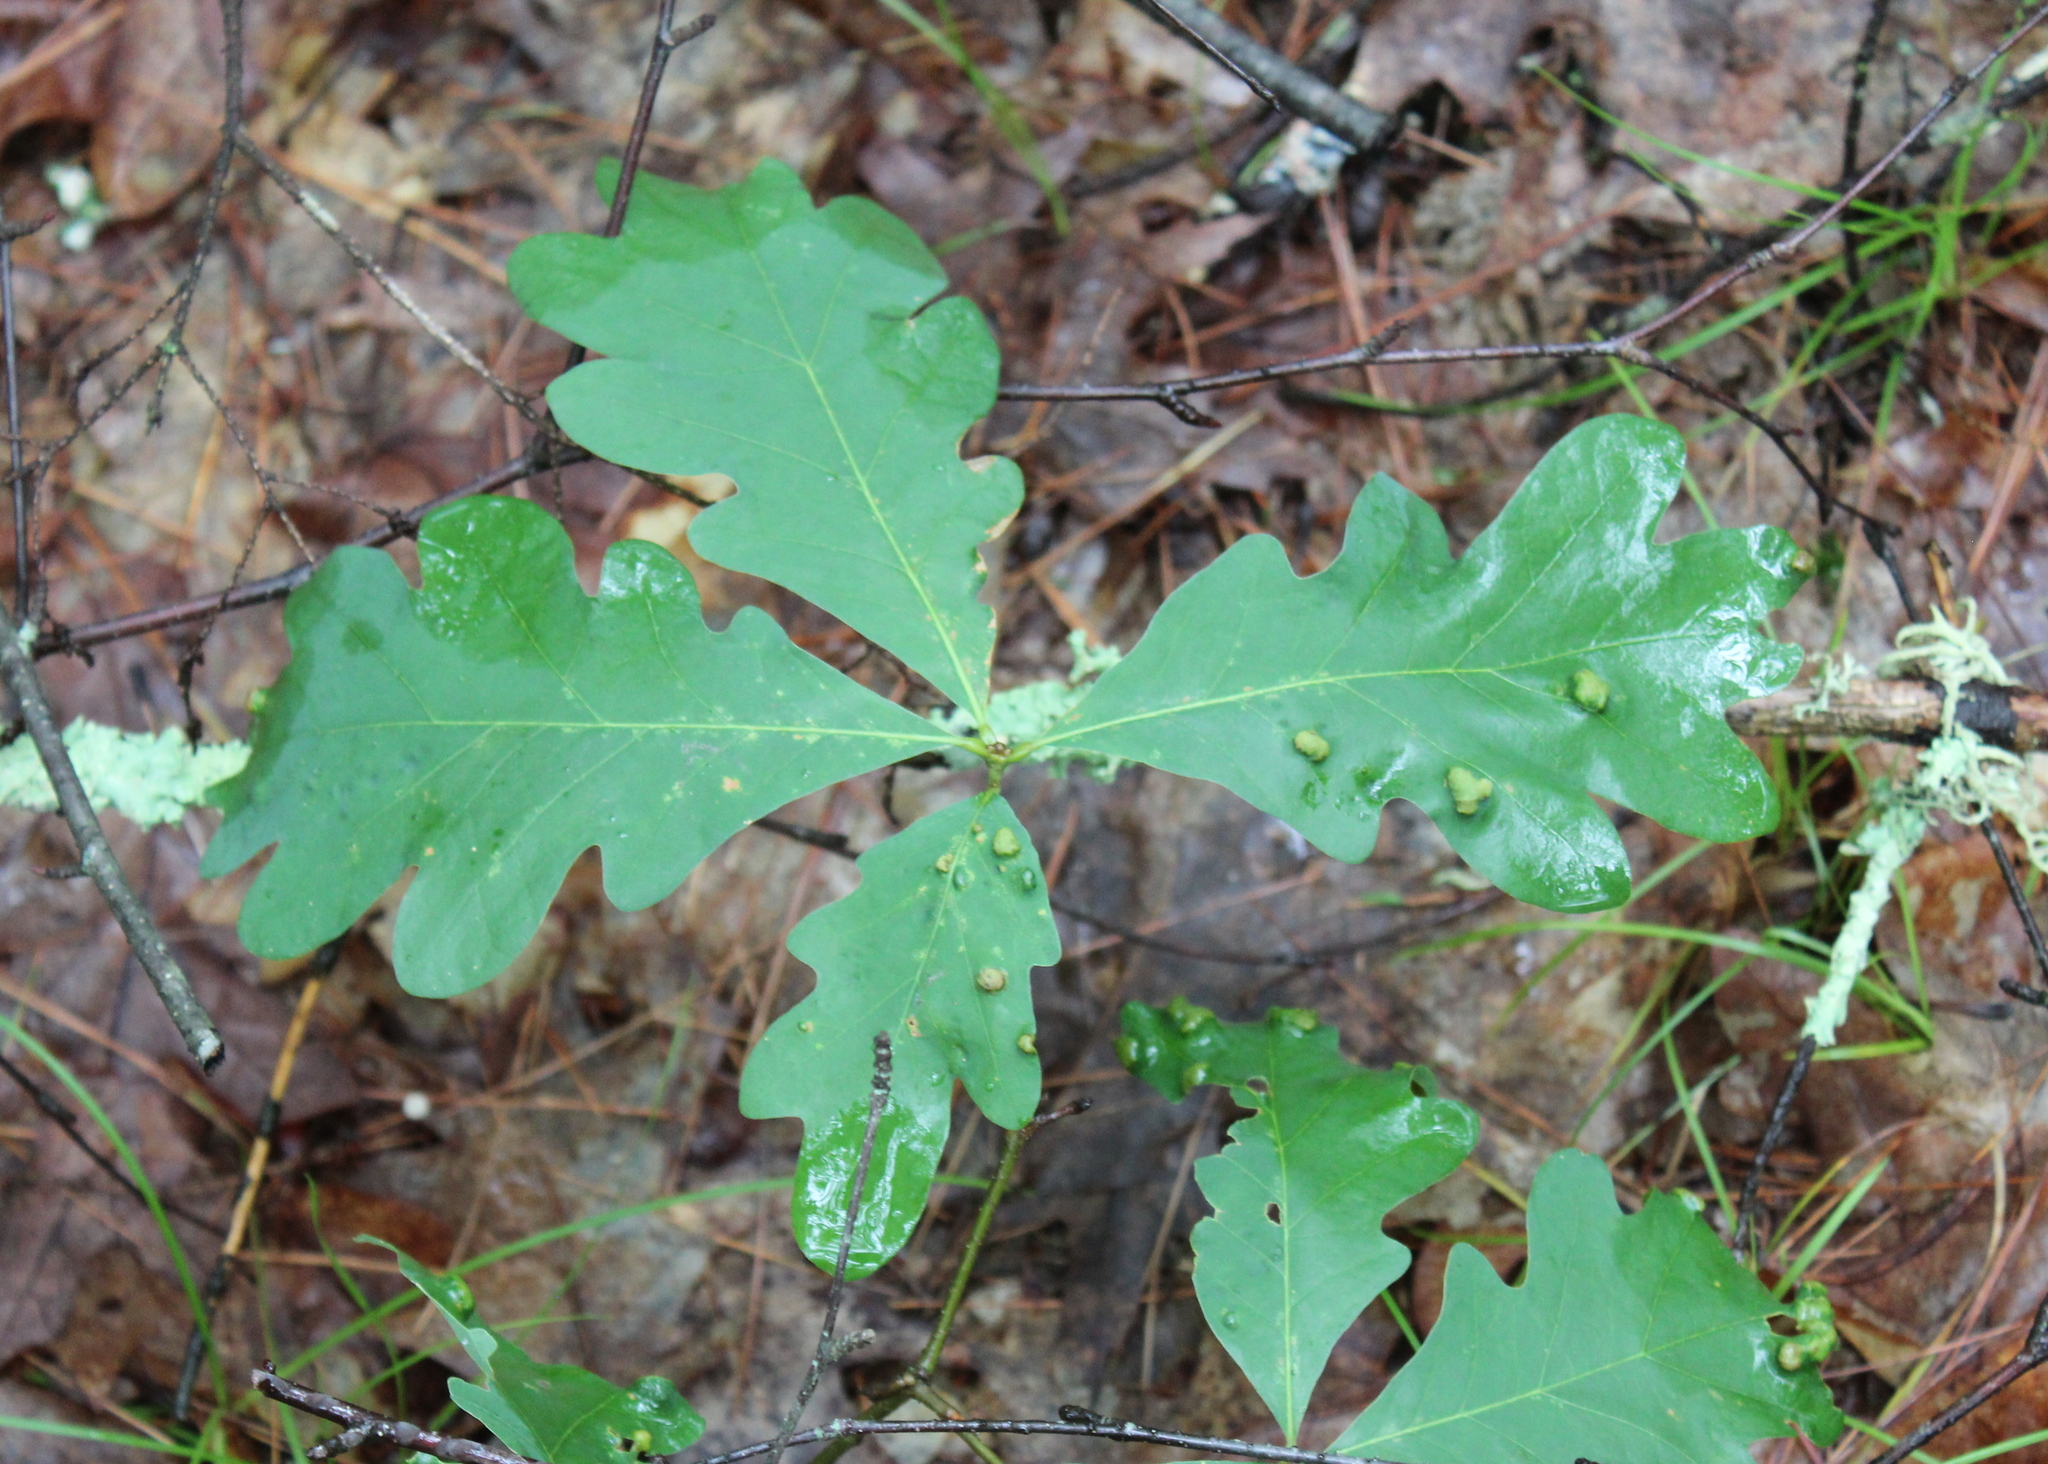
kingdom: Plantae
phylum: Tracheophyta
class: Magnoliopsida
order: Fagales
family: Fagaceae
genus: Quercus
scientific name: Quercus alba
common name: White oak
